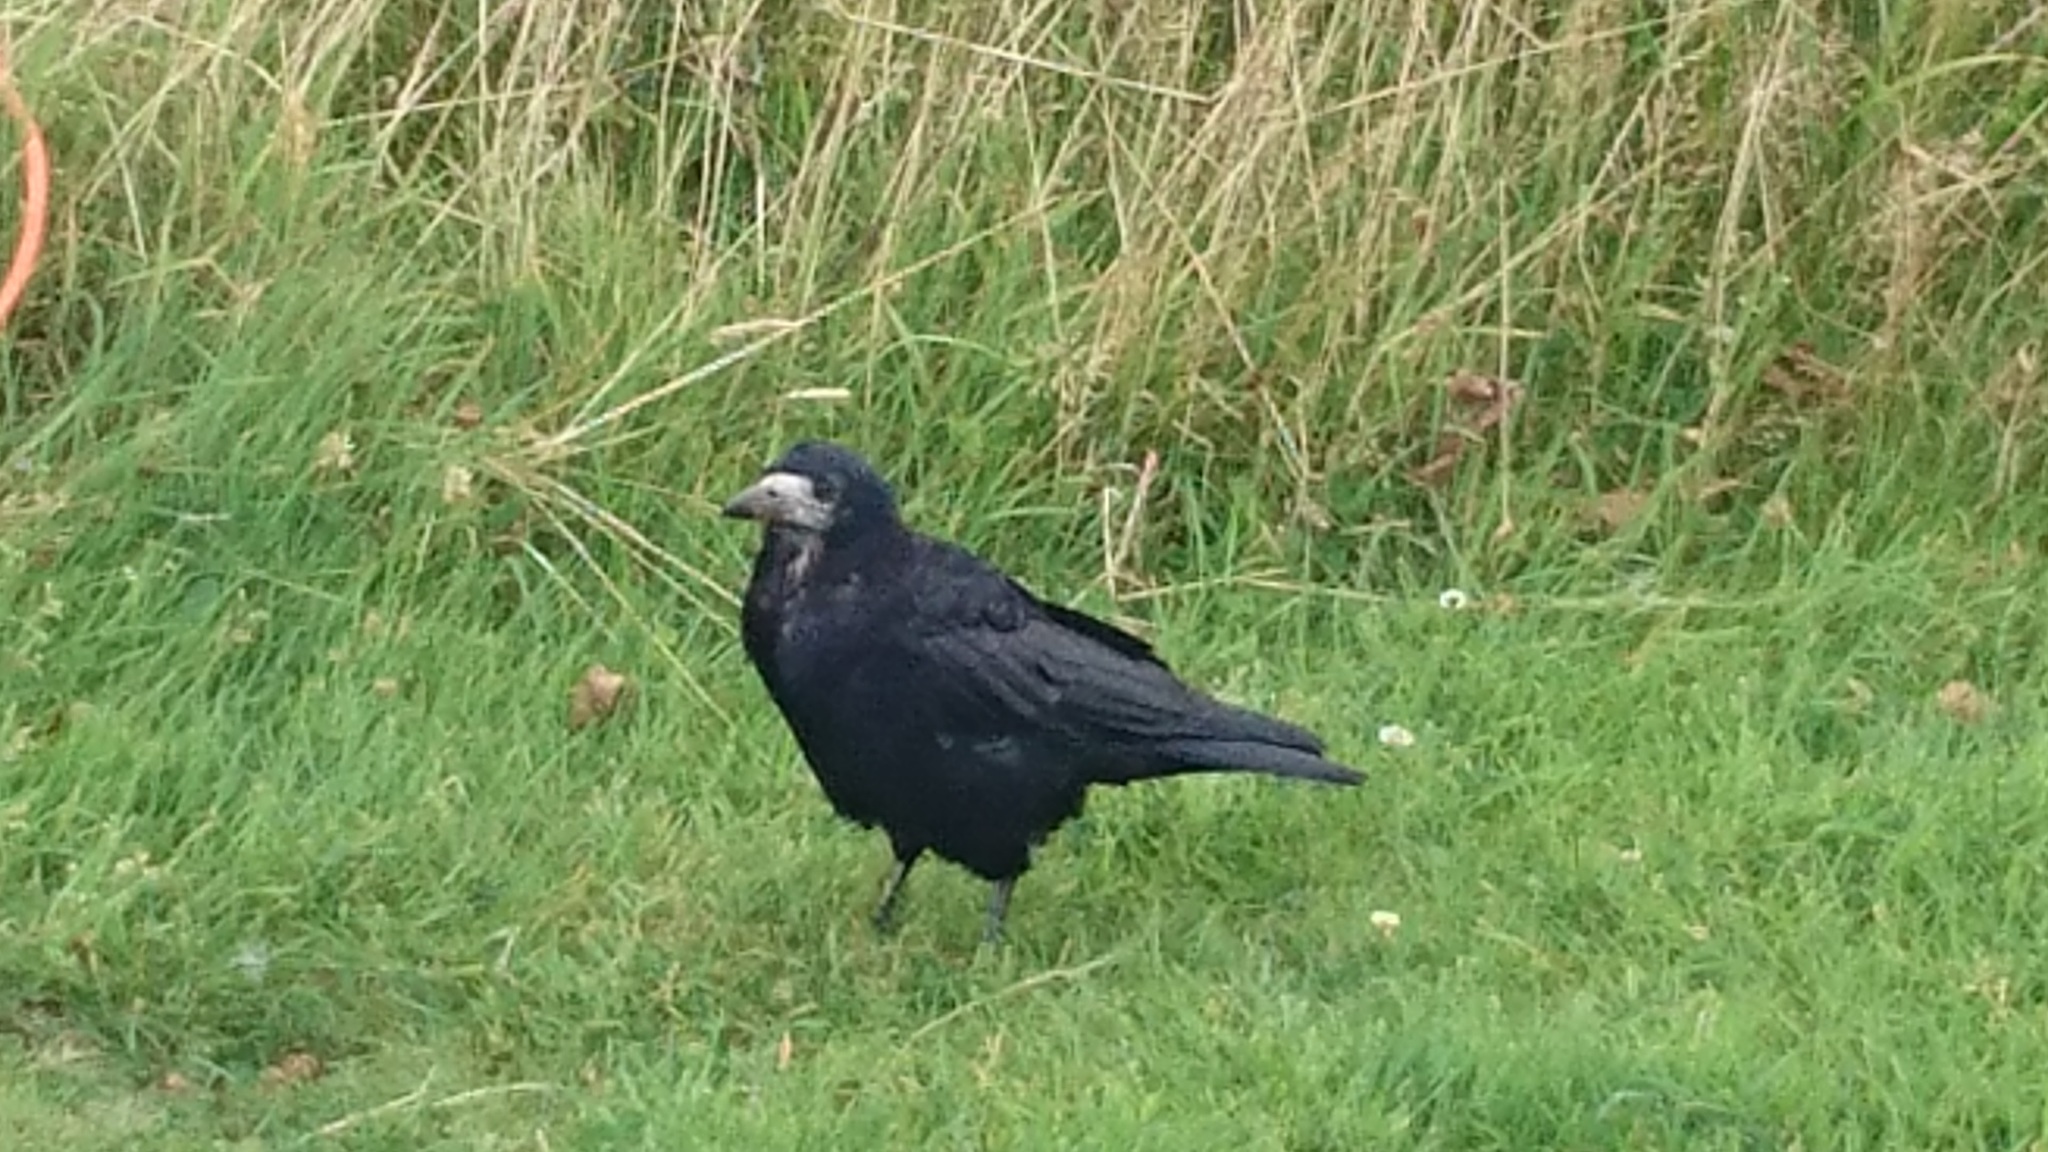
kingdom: Animalia
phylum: Chordata
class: Aves
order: Passeriformes
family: Corvidae
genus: Corvus
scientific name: Corvus frugilegus
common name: Rook
